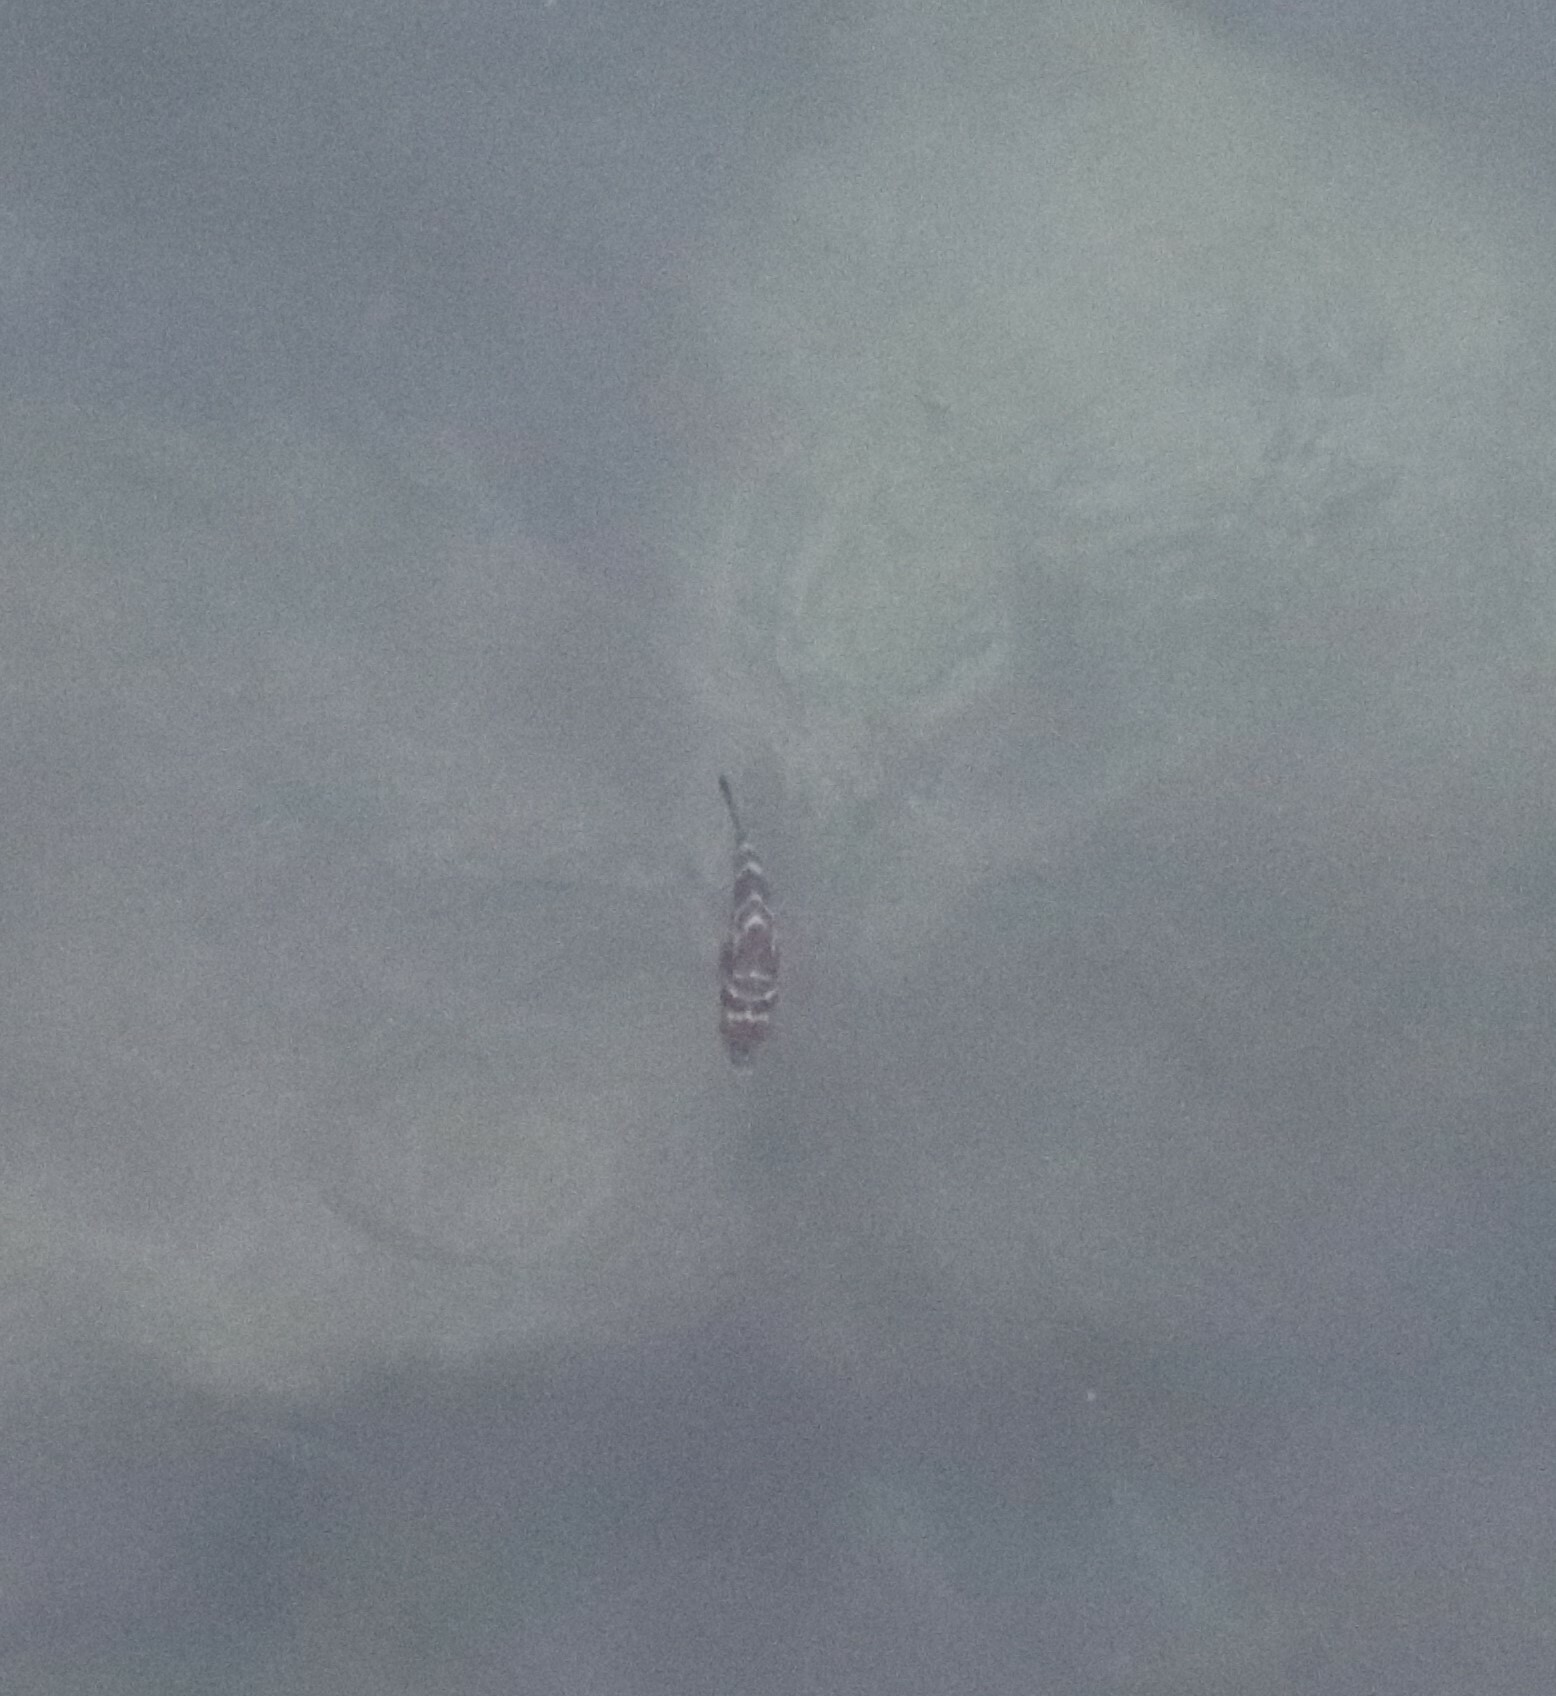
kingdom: Animalia
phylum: Chordata
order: Tetraodontiformes
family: Tetraodontidae
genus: Sphoeroides
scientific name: Sphoeroides annulatus
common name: Bullseye puffer
